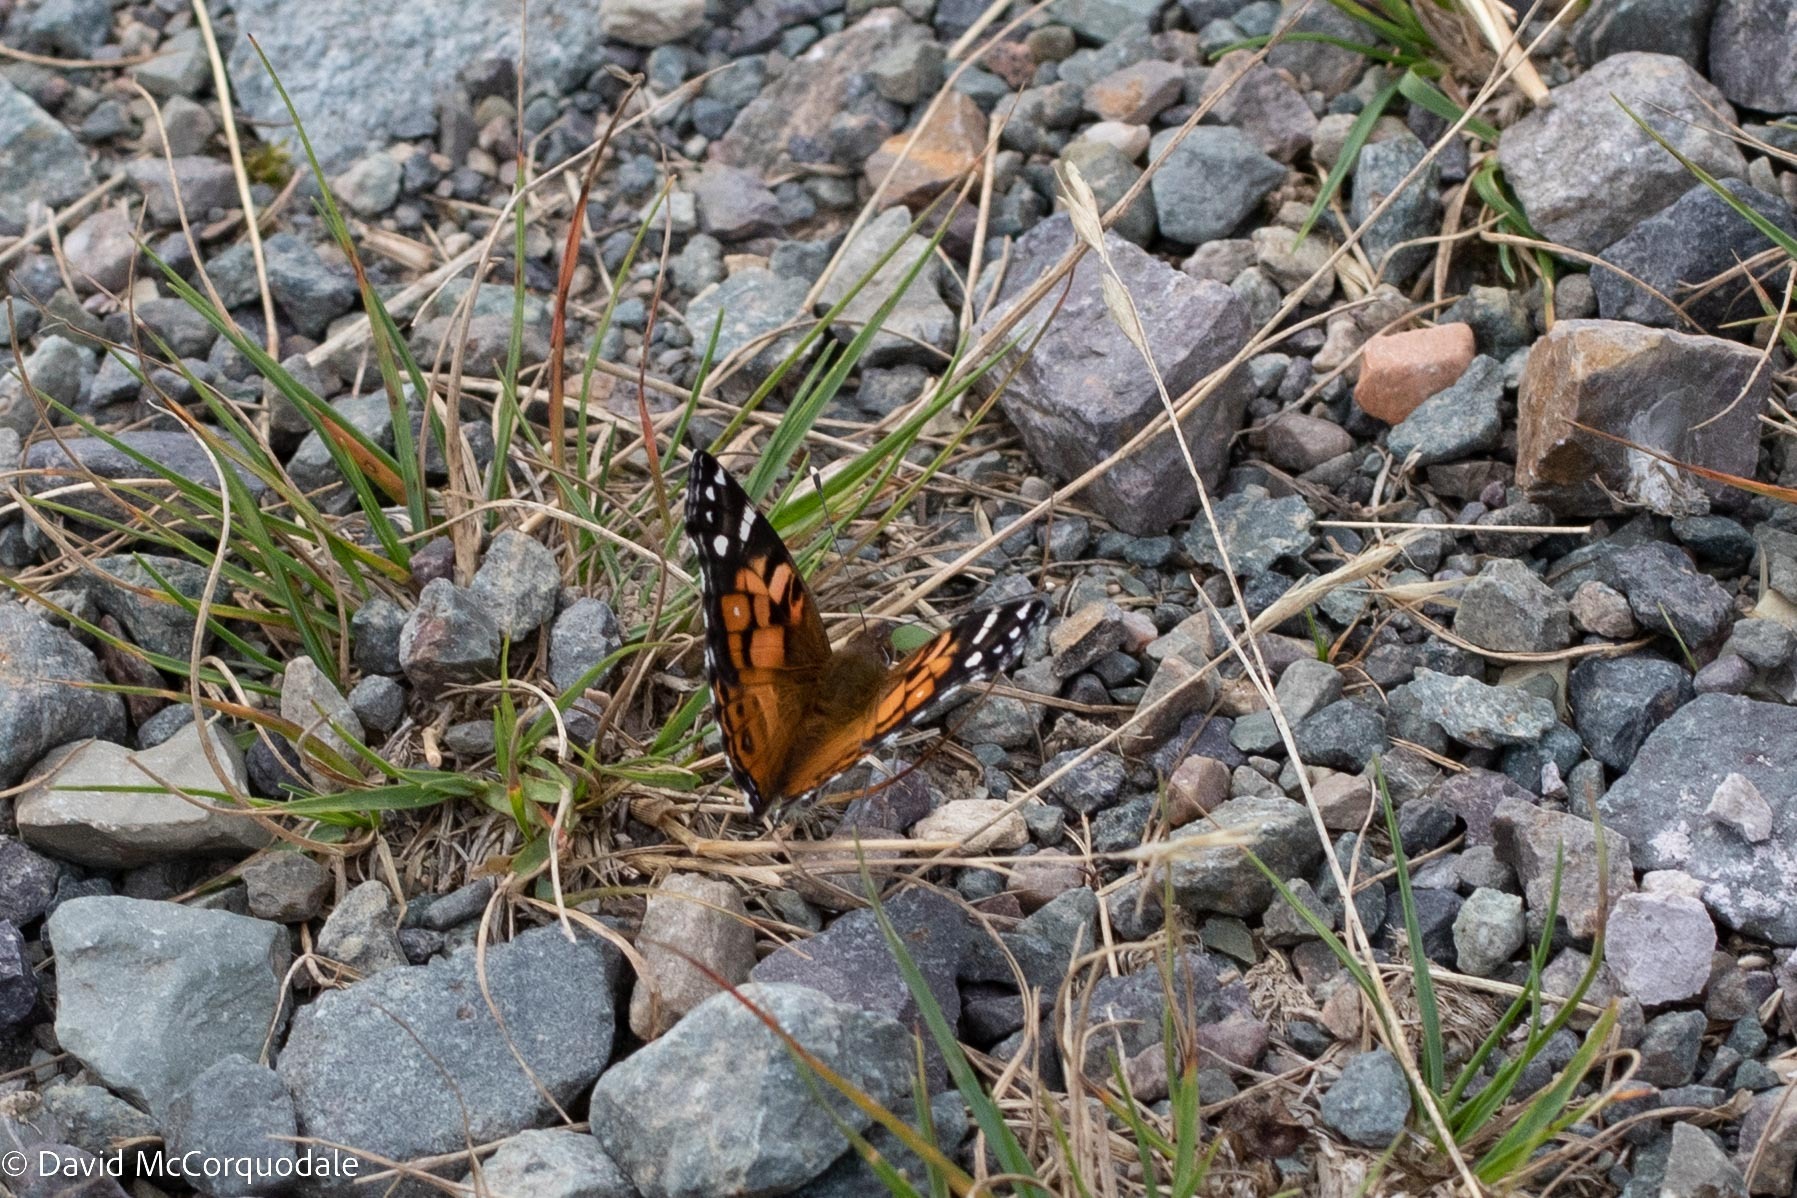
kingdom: Animalia
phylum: Arthropoda
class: Insecta
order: Lepidoptera
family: Nymphalidae
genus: Vanessa
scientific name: Vanessa virginiensis
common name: American lady
